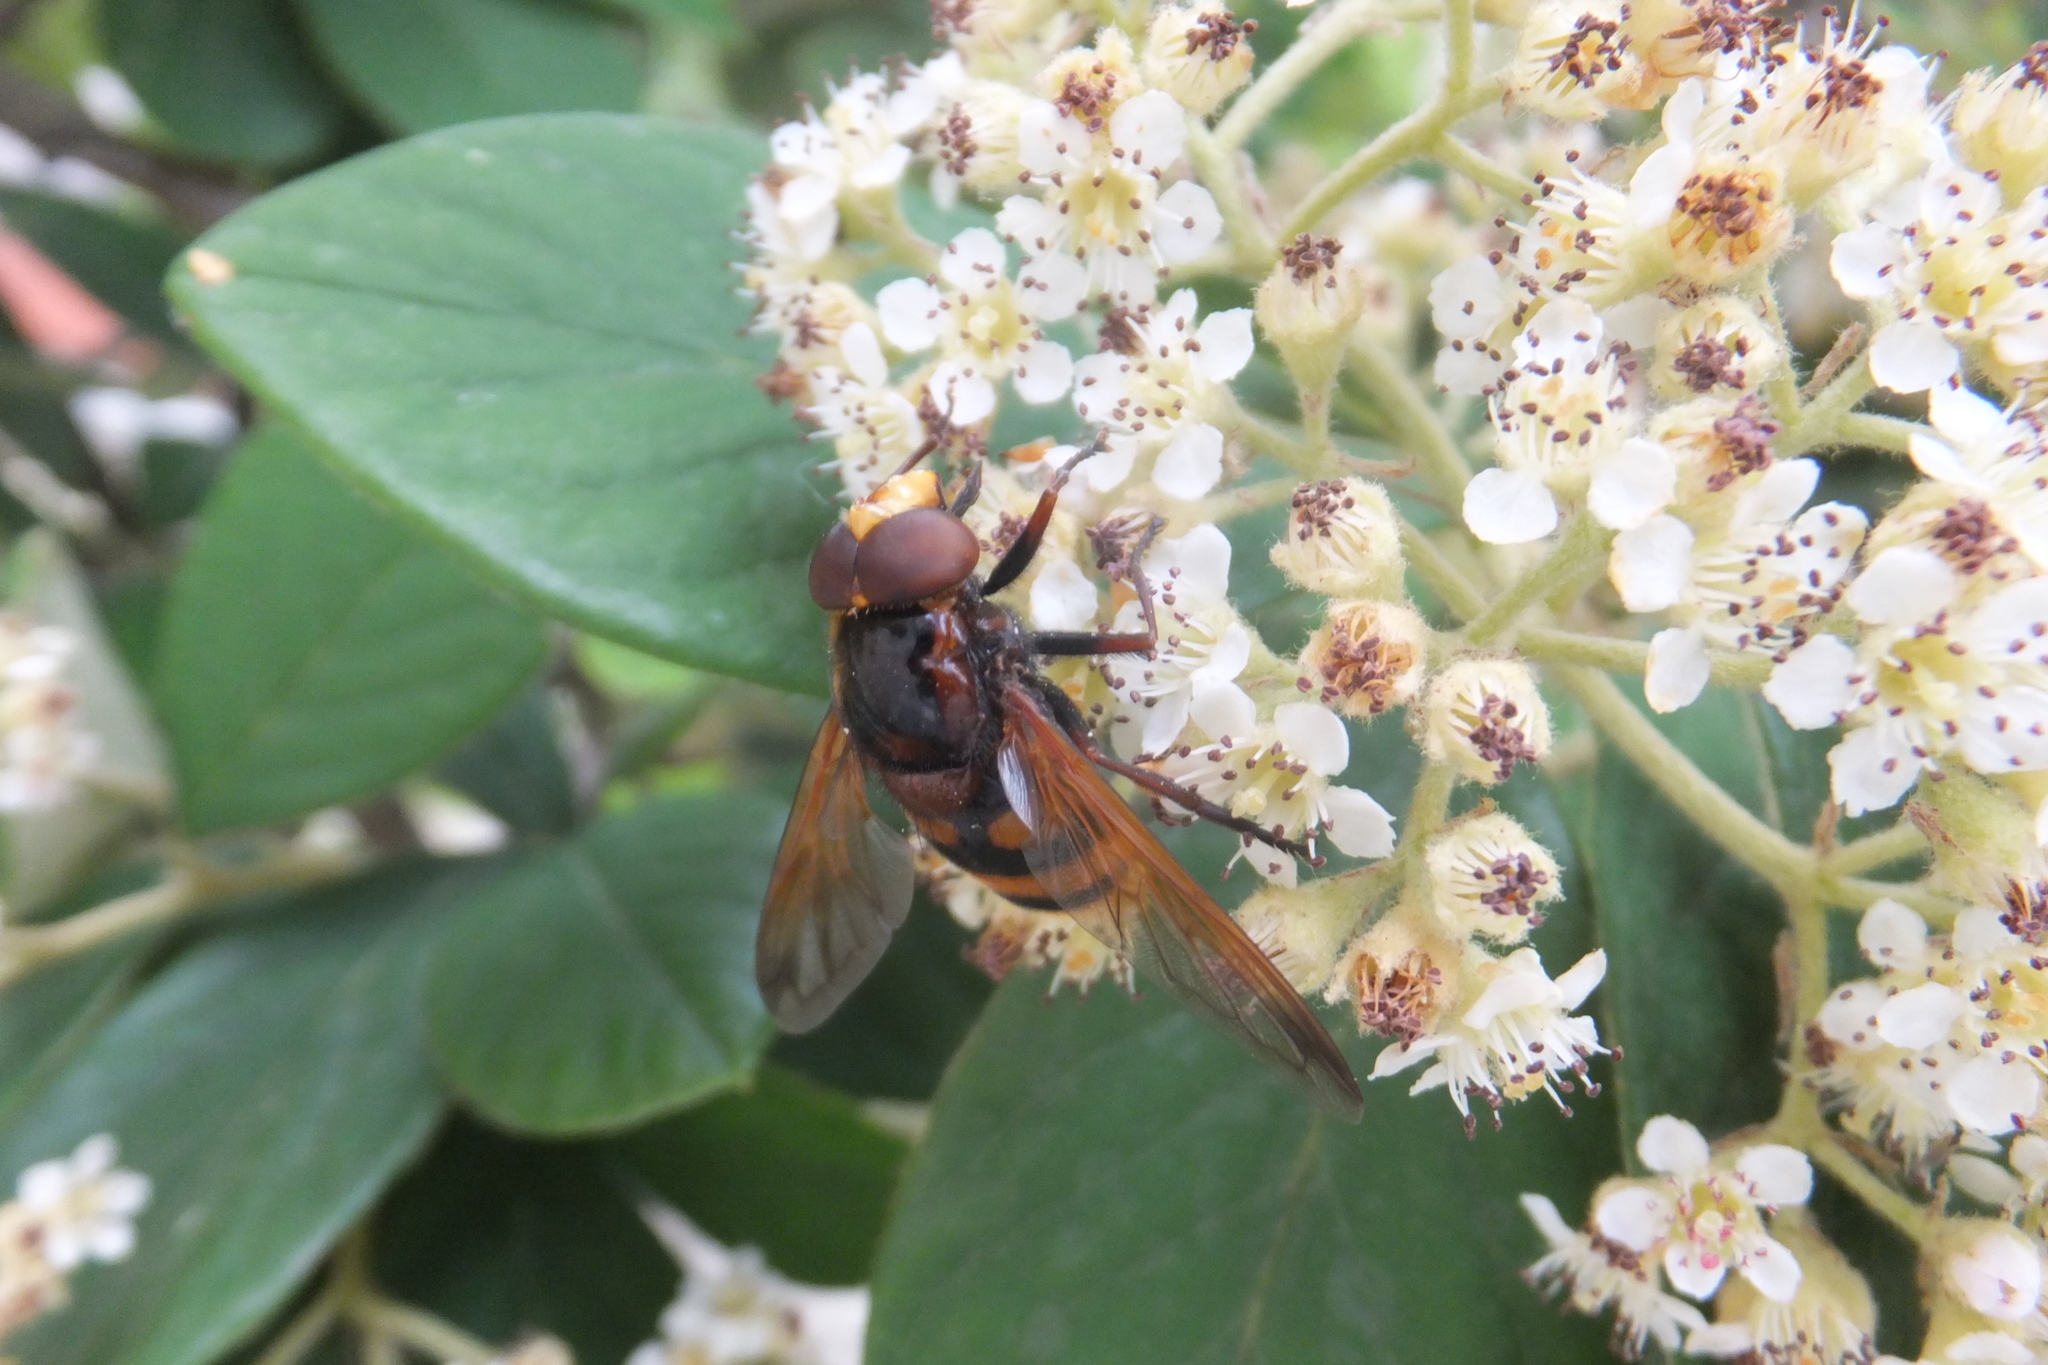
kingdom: Animalia
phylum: Arthropoda
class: Insecta
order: Diptera
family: Syrphidae
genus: Volucella
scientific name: Volucella zonaria
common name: Hornet hoverfly
